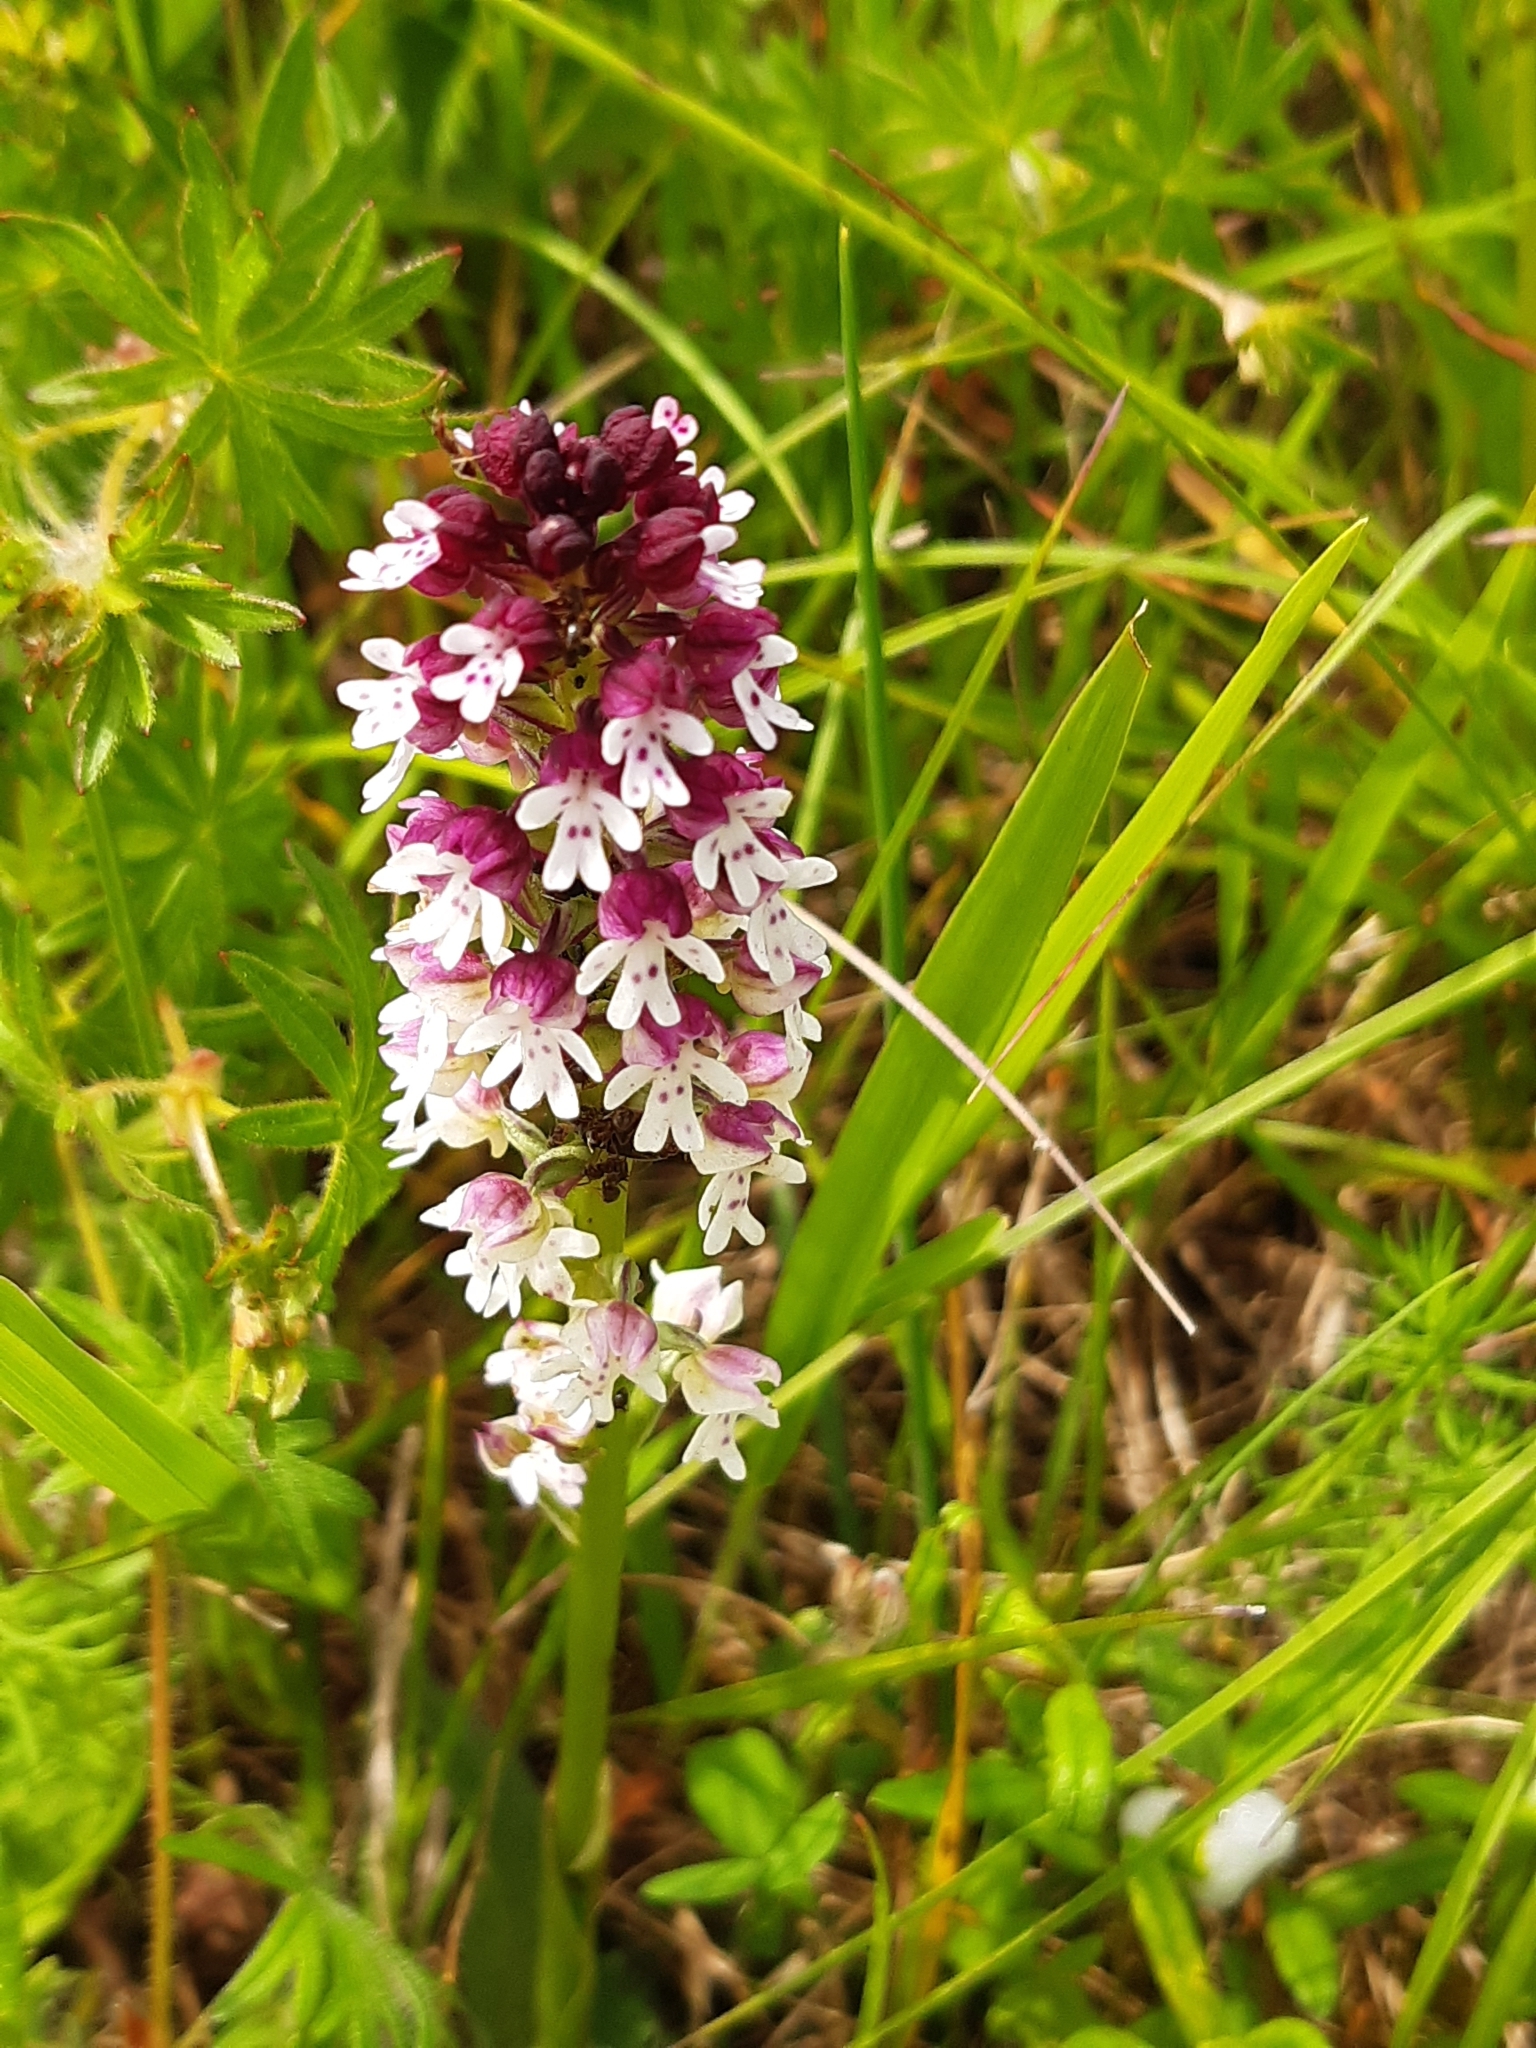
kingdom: Plantae
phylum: Tracheophyta
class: Liliopsida
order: Asparagales
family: Orchidaceae
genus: Neotinea
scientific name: Neotinea ustulata
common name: Burnt orchid
